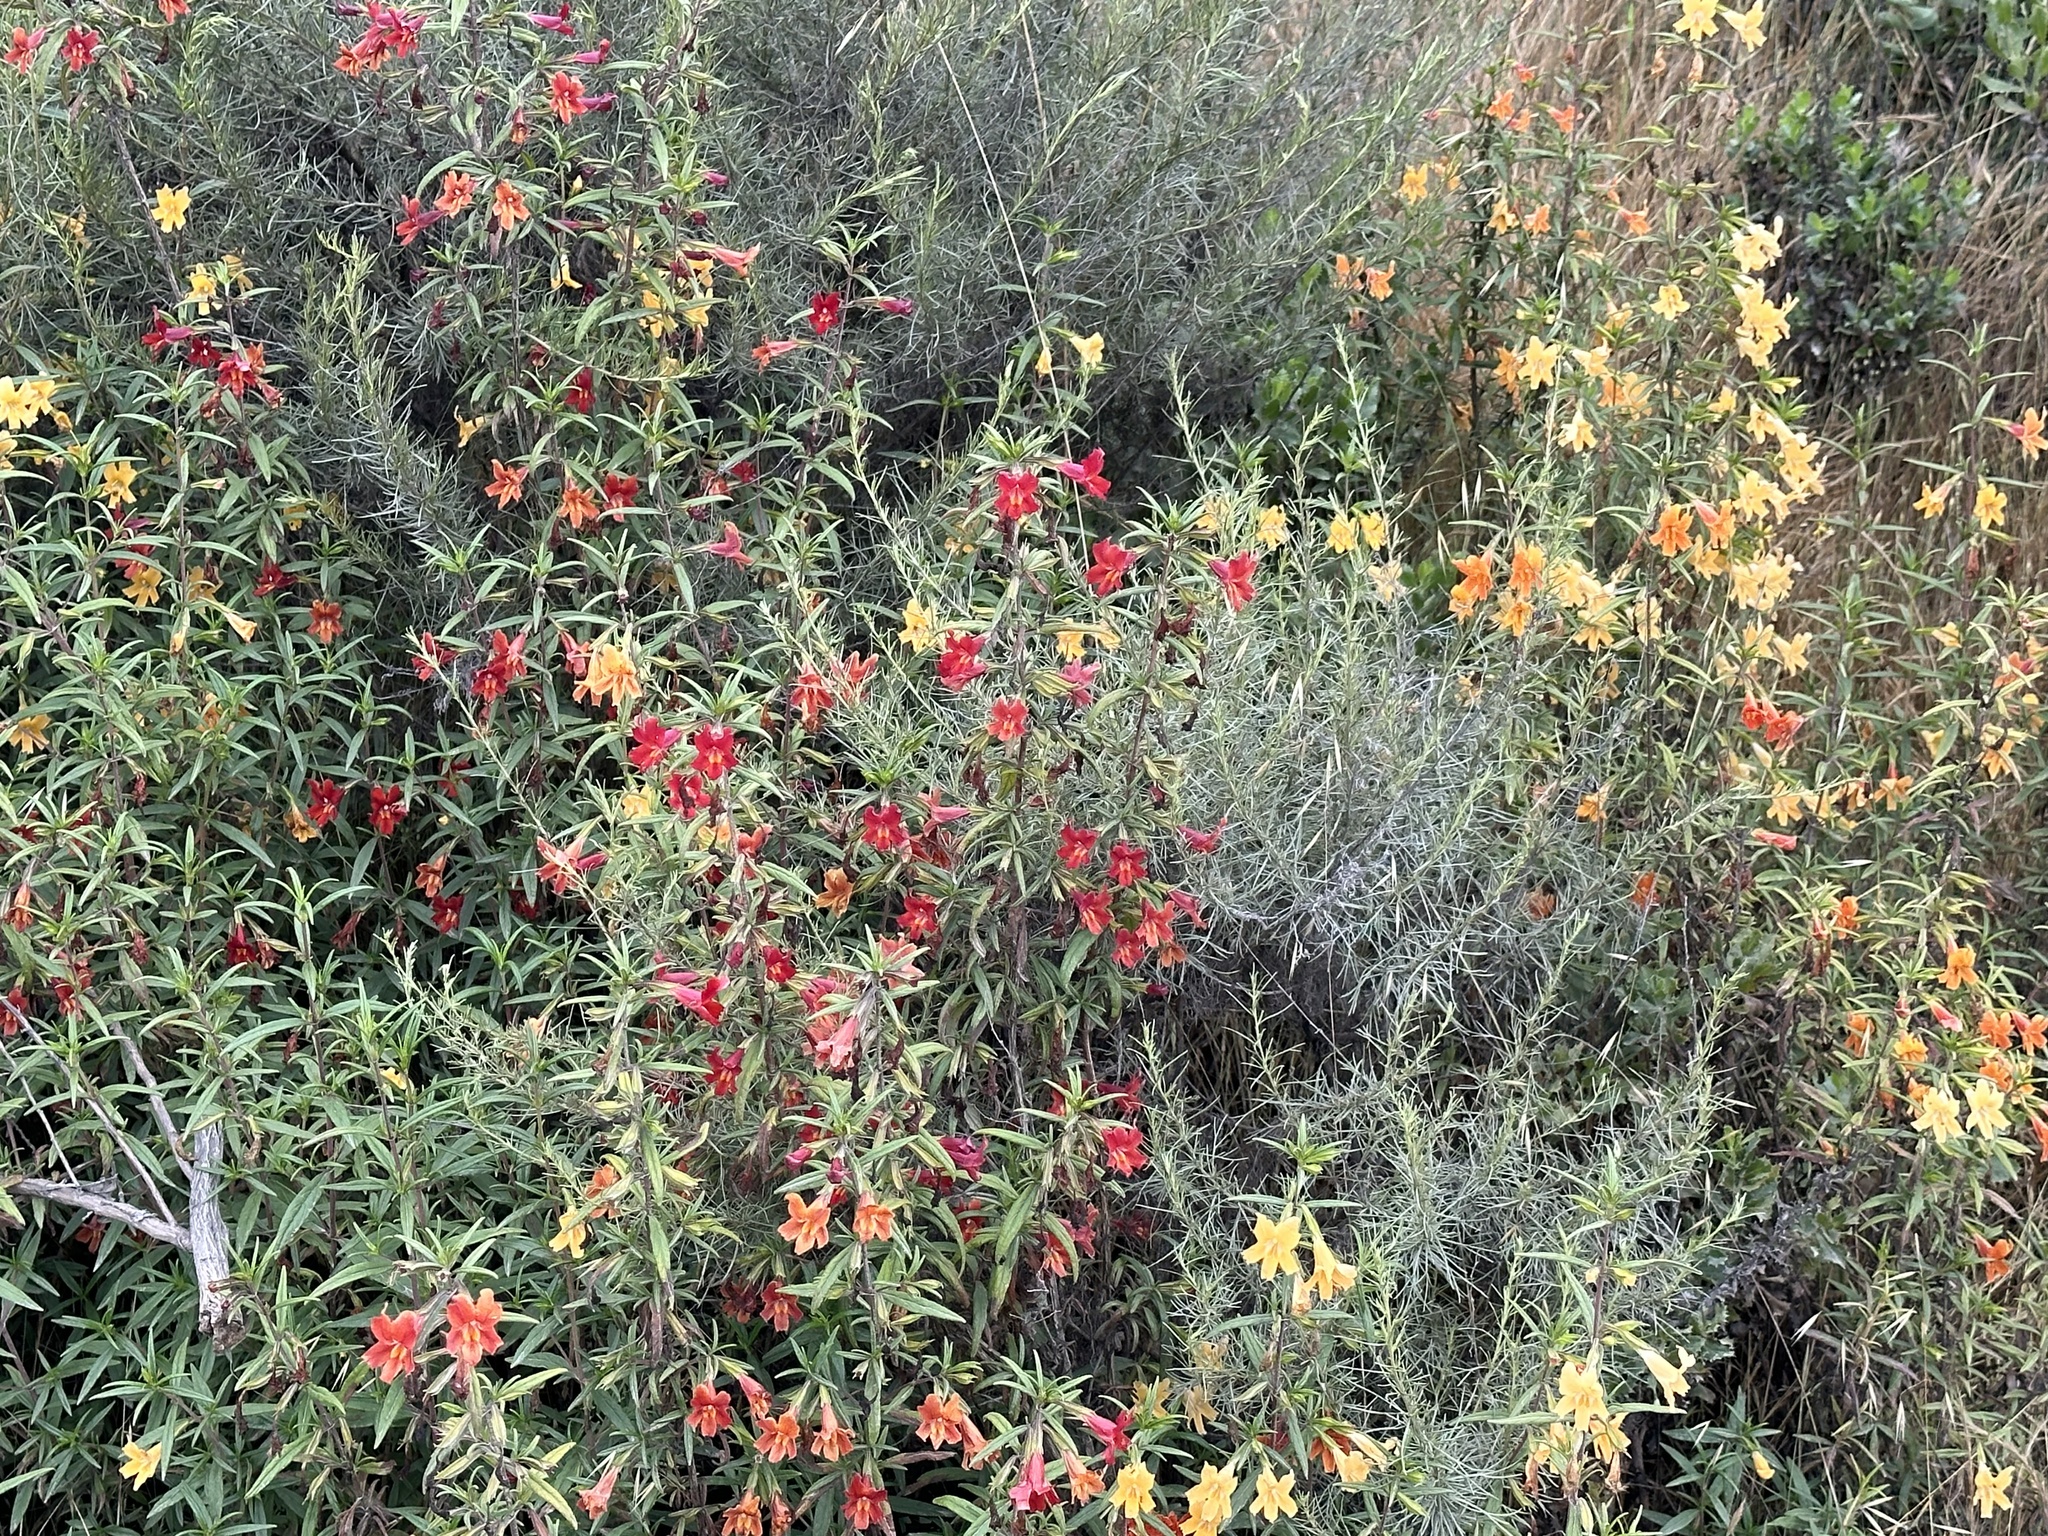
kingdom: Plantae
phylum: Tracheophyta
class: Magnoliopsida
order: Lamiales
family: Phrymaceae
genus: Diplacus
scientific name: Diplacus puniceus
